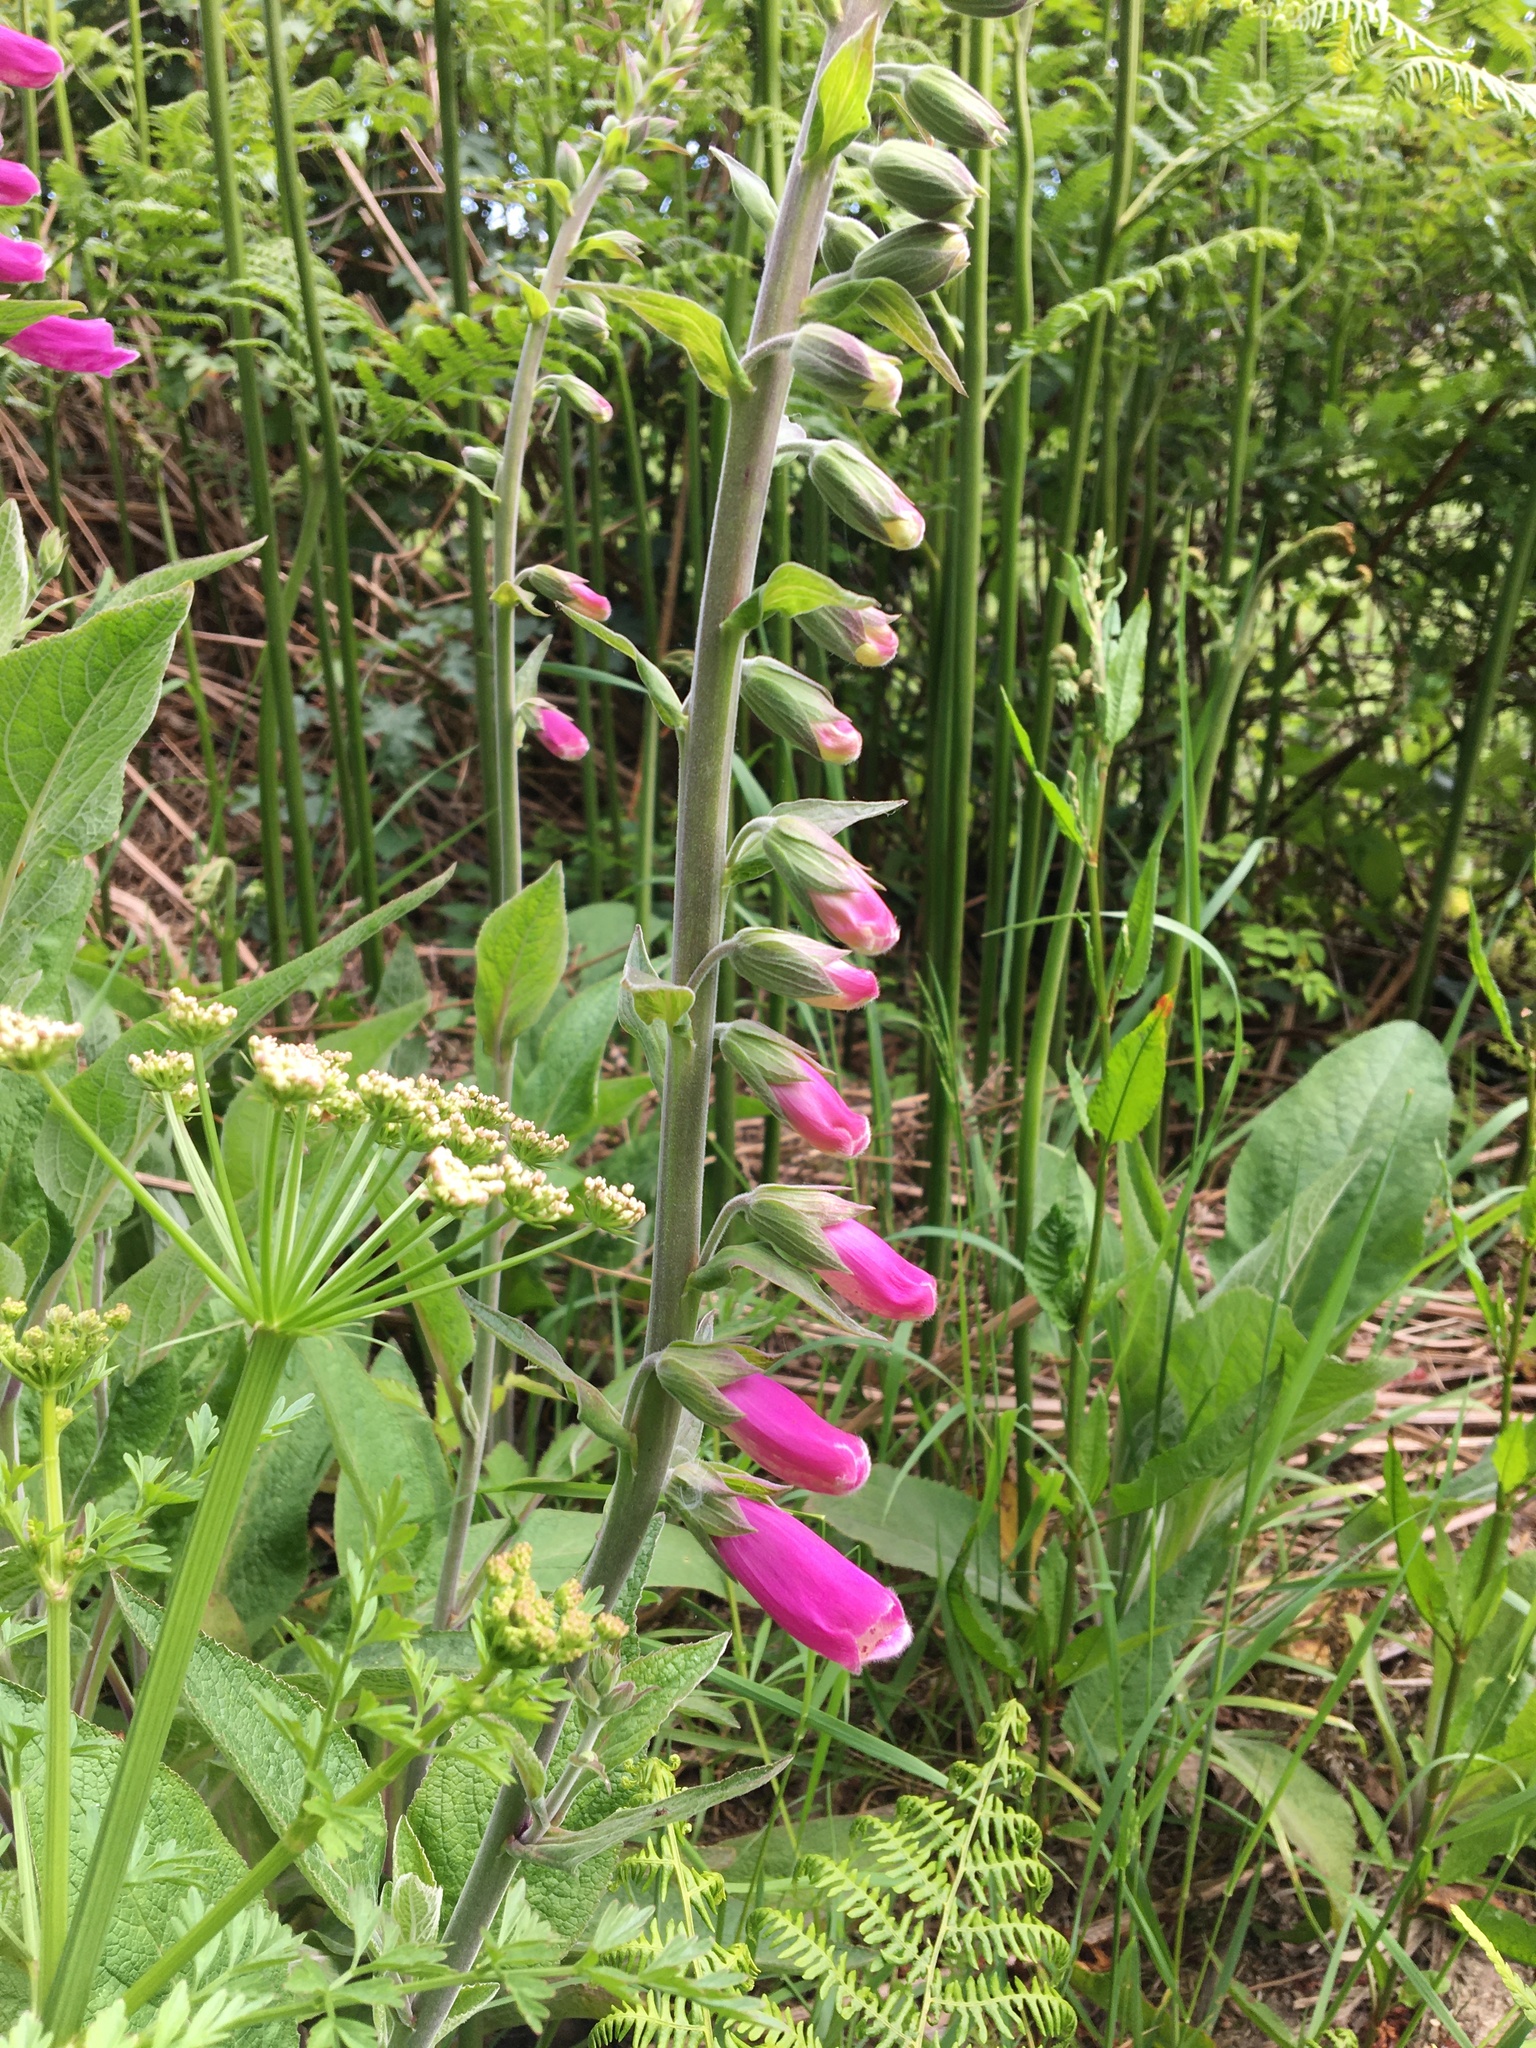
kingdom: Plantae
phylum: Tracheophyta
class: Magnoliopsida
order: Lamiales
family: Plantaginaceae
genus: Digitalis
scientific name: Digitalis purpurea
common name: Foxglove
